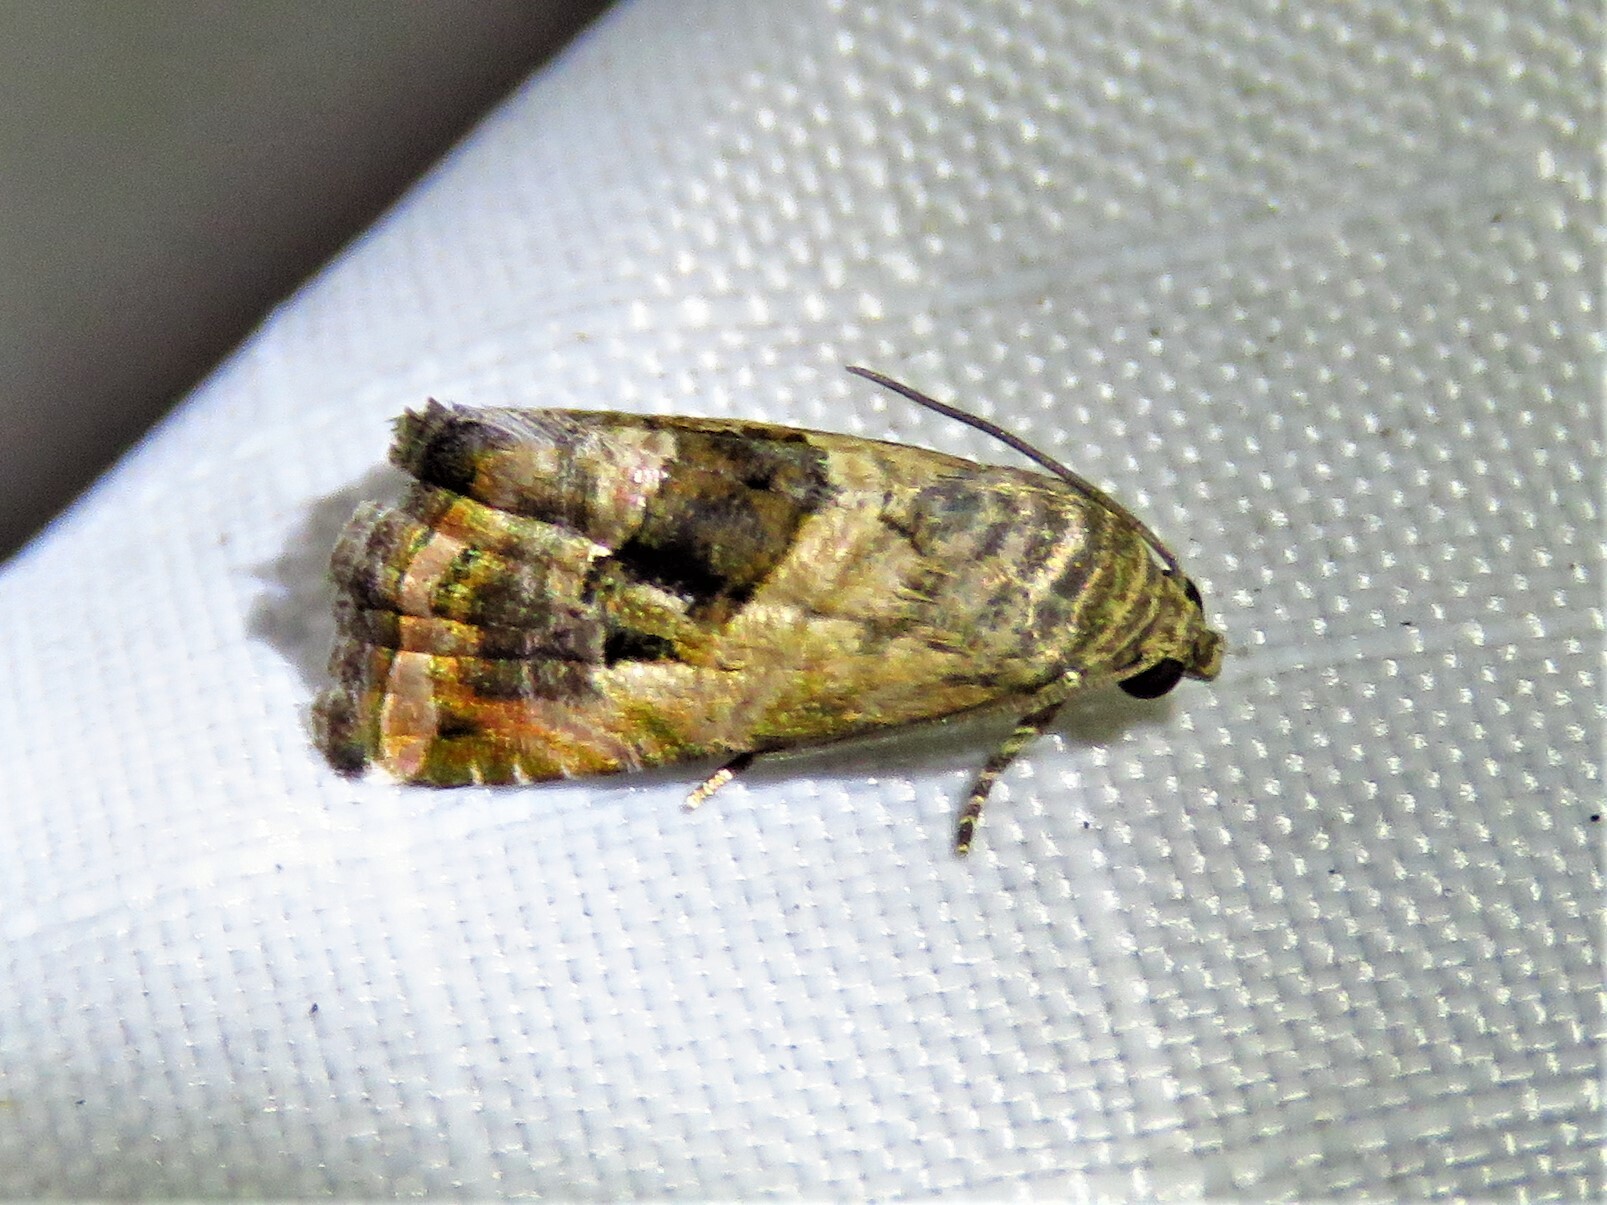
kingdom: Animalia
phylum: Arthropoda
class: Insecta
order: Lepidoptera
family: Noctuidae
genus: Tripudia
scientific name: Tripudia quadrifera
